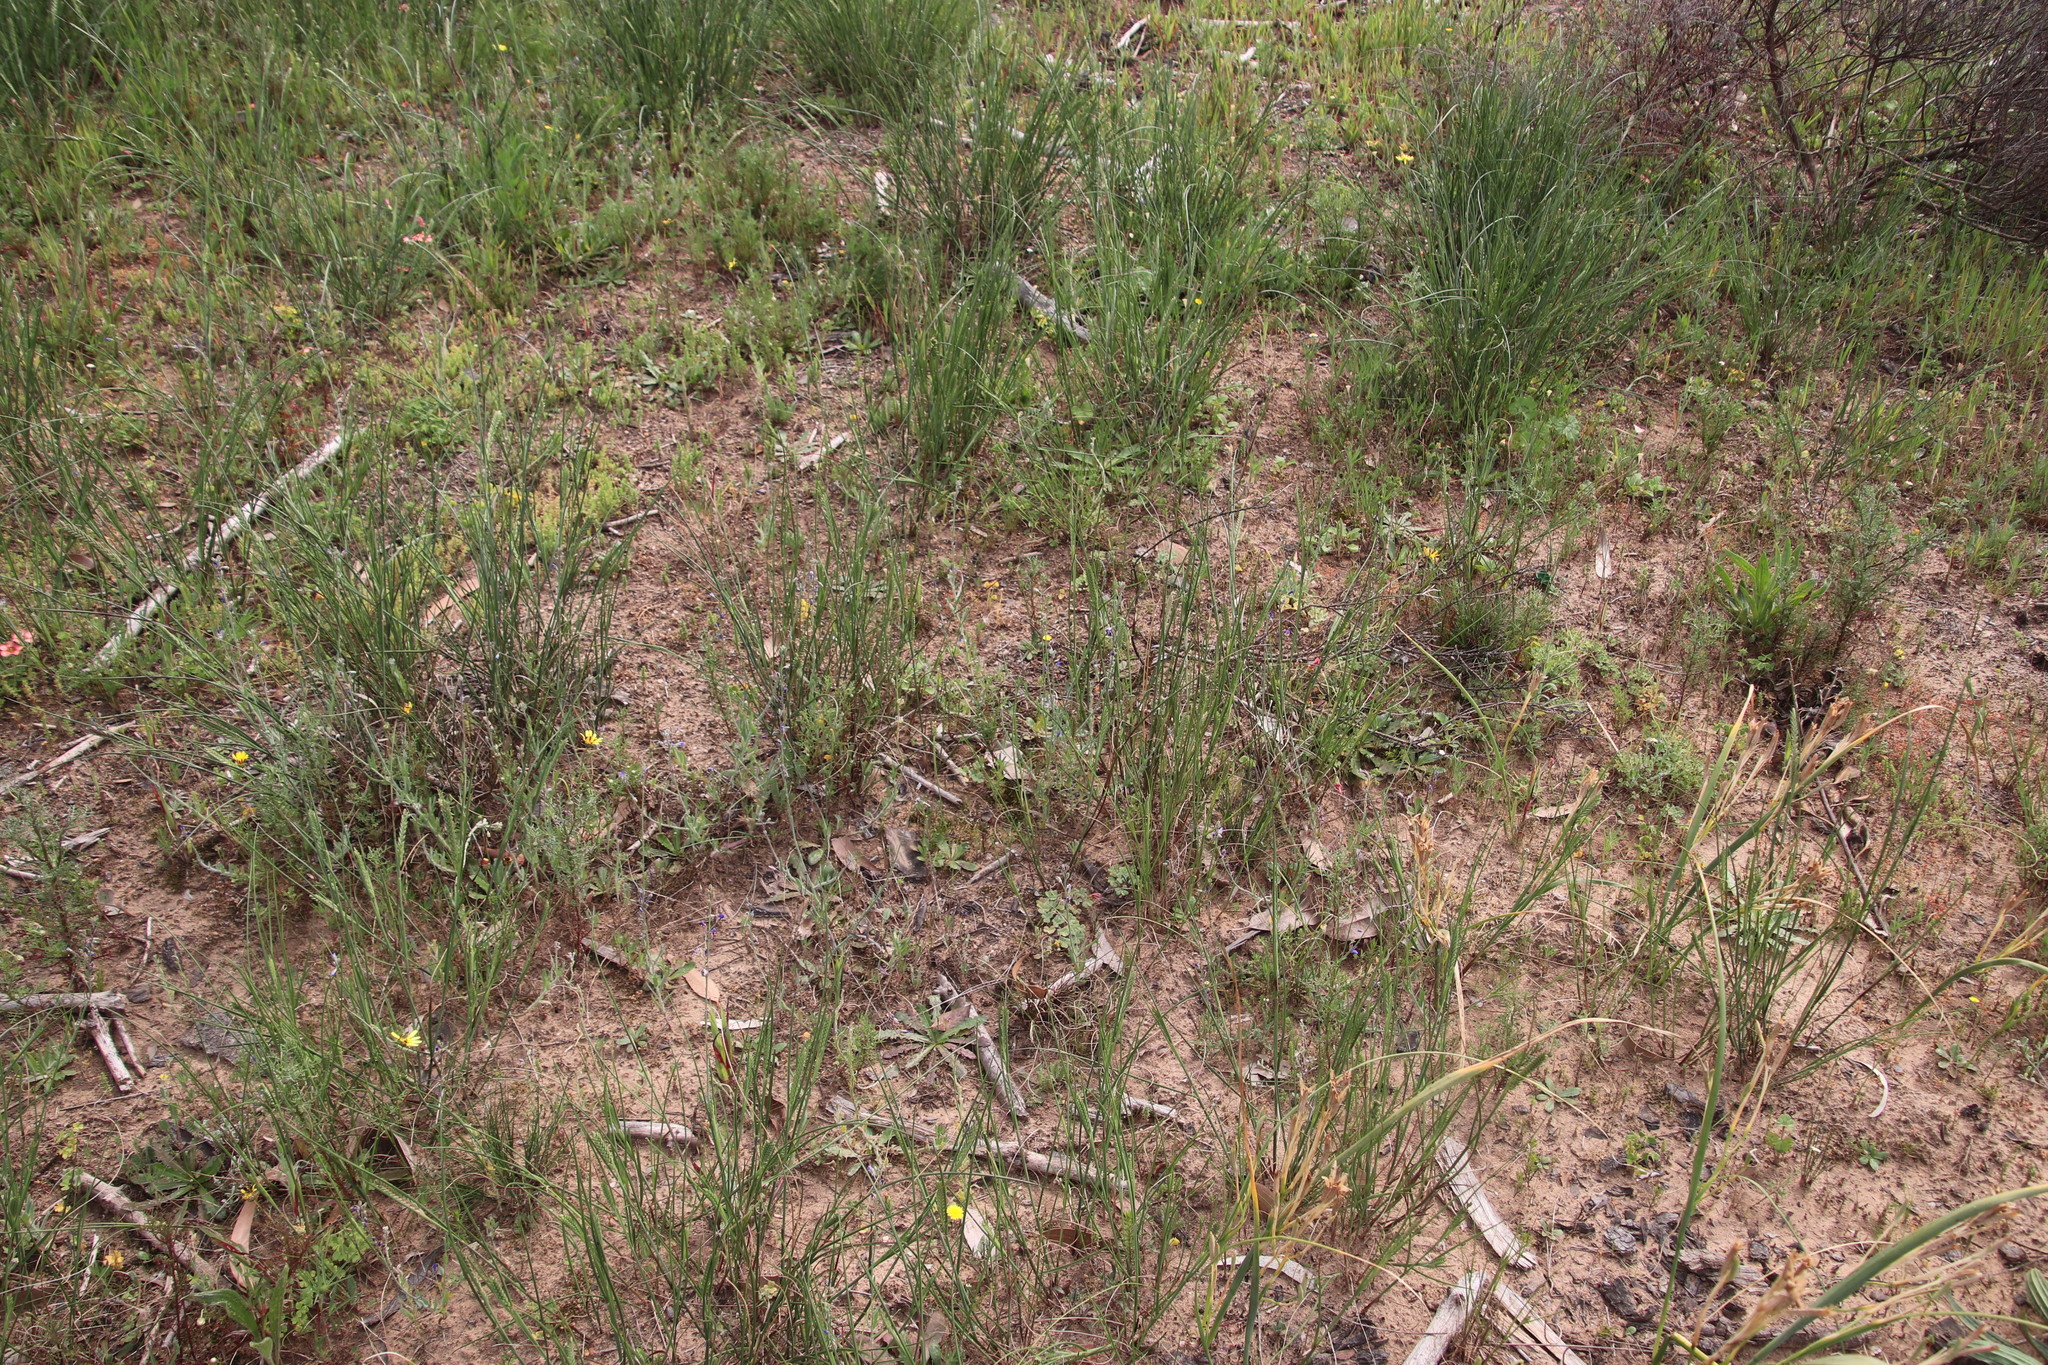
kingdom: Plantae
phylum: Tracheophyta
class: Magnoliopsida
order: Brassicales
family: Brassicaceae
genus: Heliophila
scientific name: Heliophila africana
